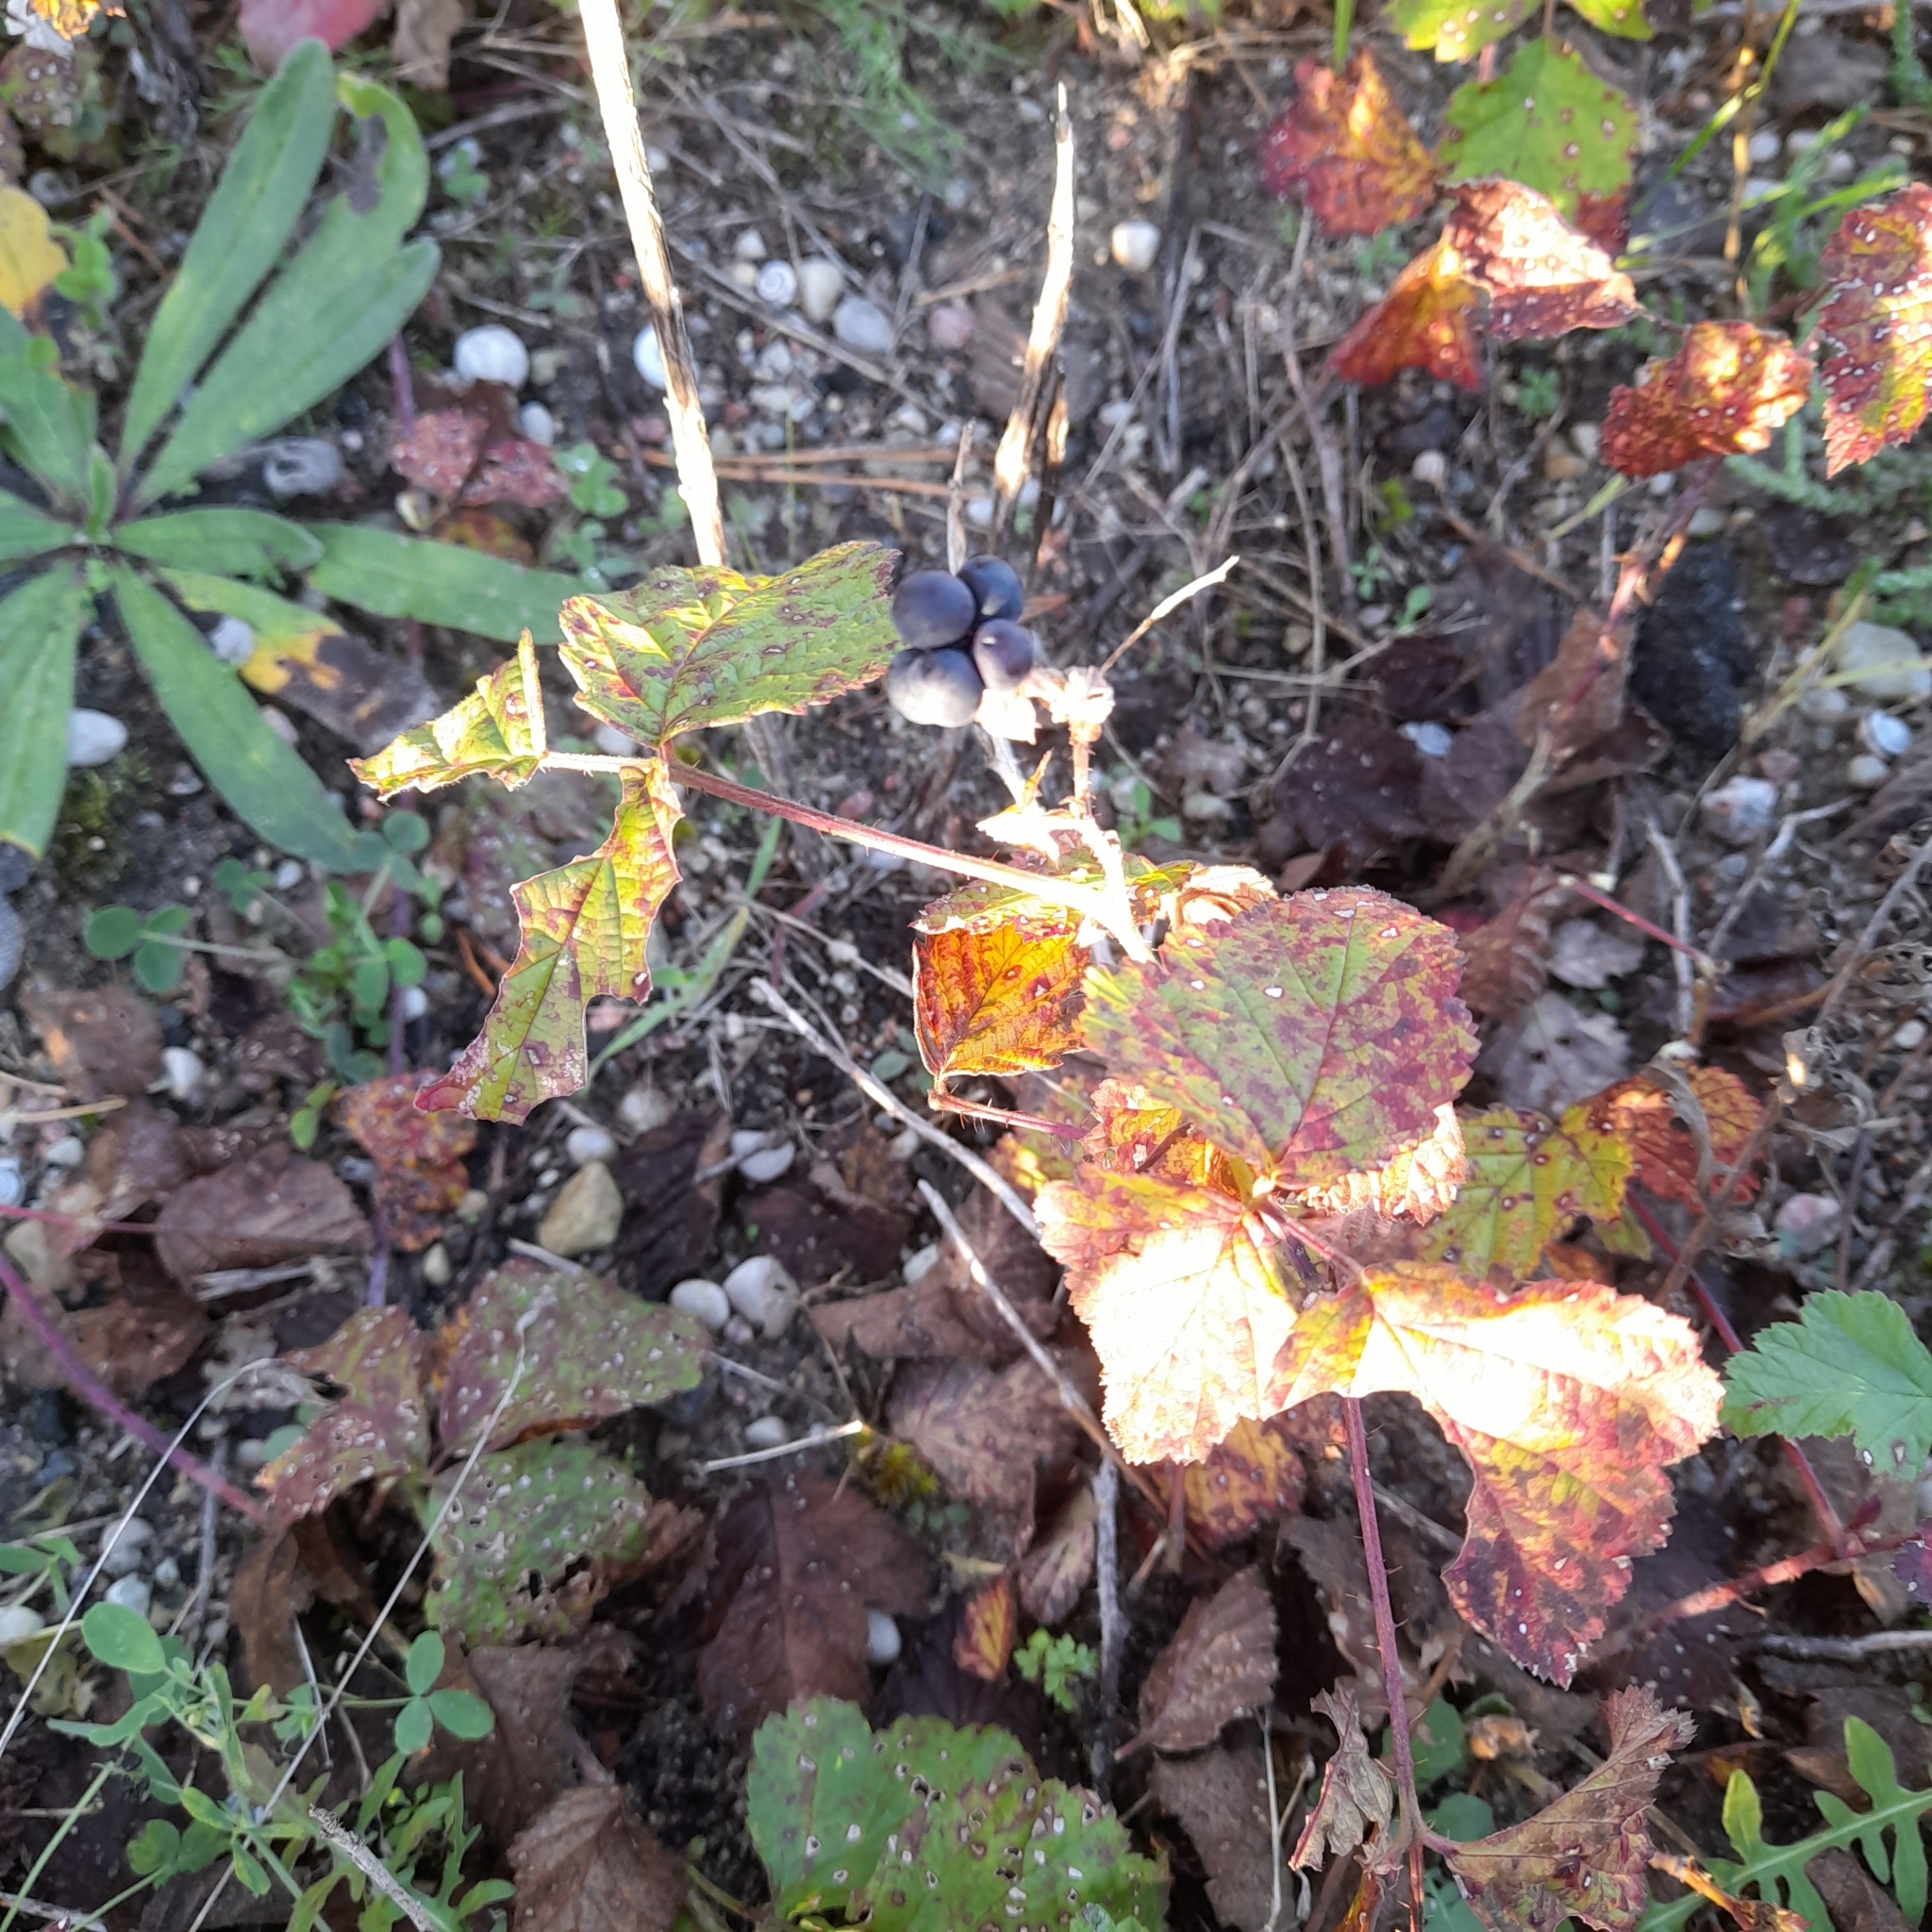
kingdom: Plantae
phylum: Tracheophyta
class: Magnoliopsida
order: Rosales
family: Rosaceae
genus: Rubus
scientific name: Rubus caesius
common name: Dewberry
